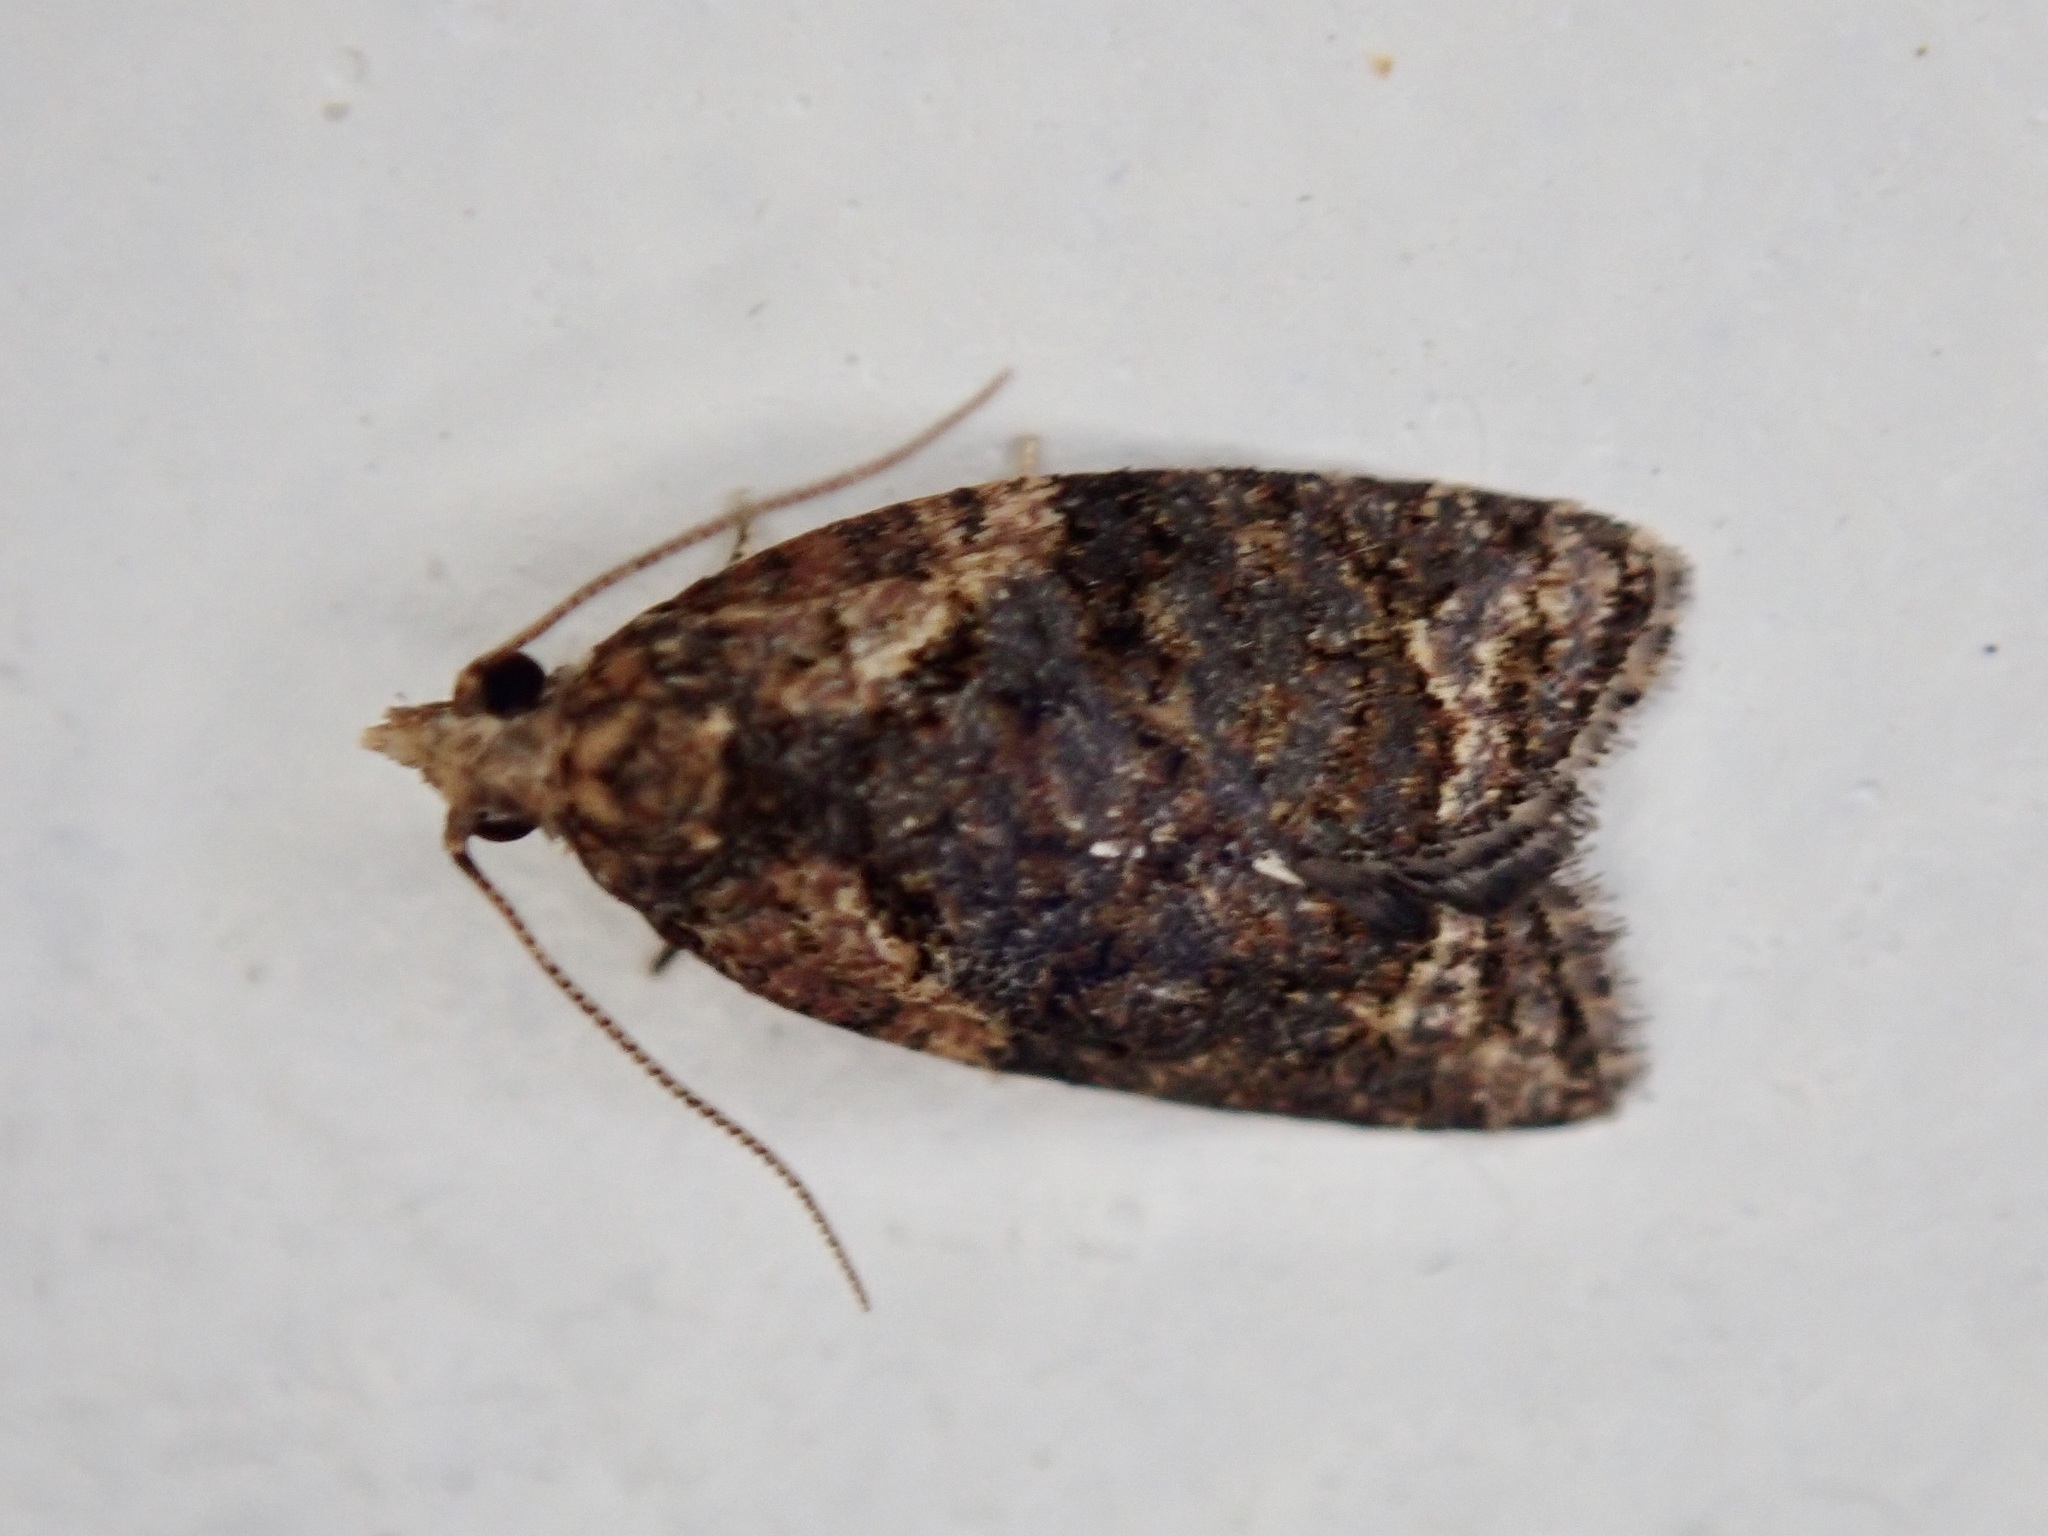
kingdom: Animalia
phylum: Arthropoda
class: Insecta
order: Lepidoptera
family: Tortricidae
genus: Capua
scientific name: Capua intractana
